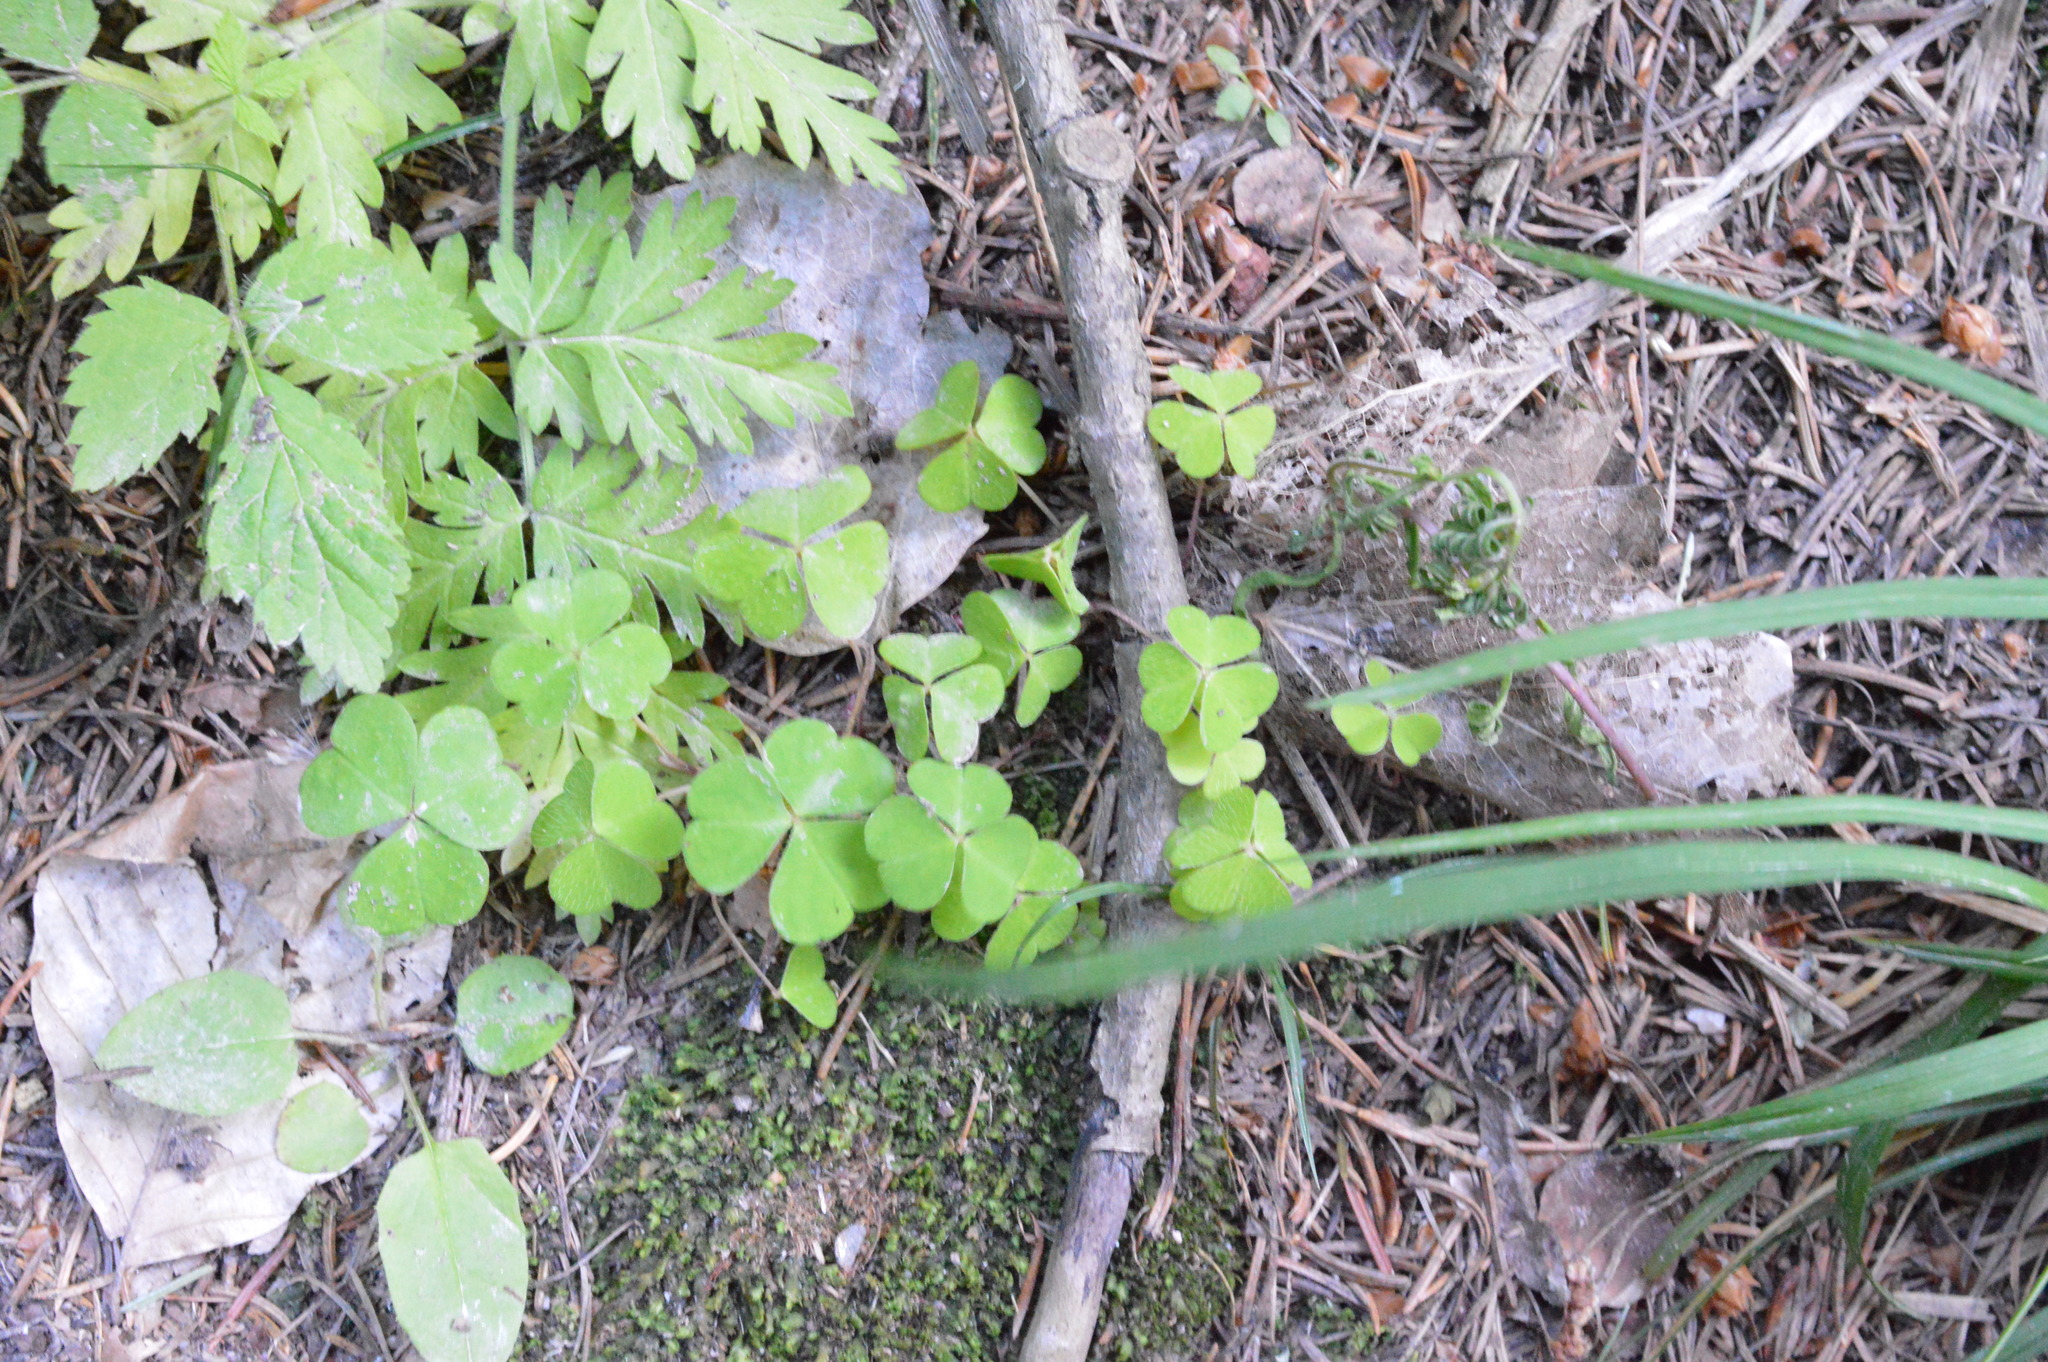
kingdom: Plantae
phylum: Tracheophyta
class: Magnoliopsida
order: Oxalidales
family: Oxalidaceae
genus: Oxalis
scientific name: Oxalis acetosella
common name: Wood-sorrel
